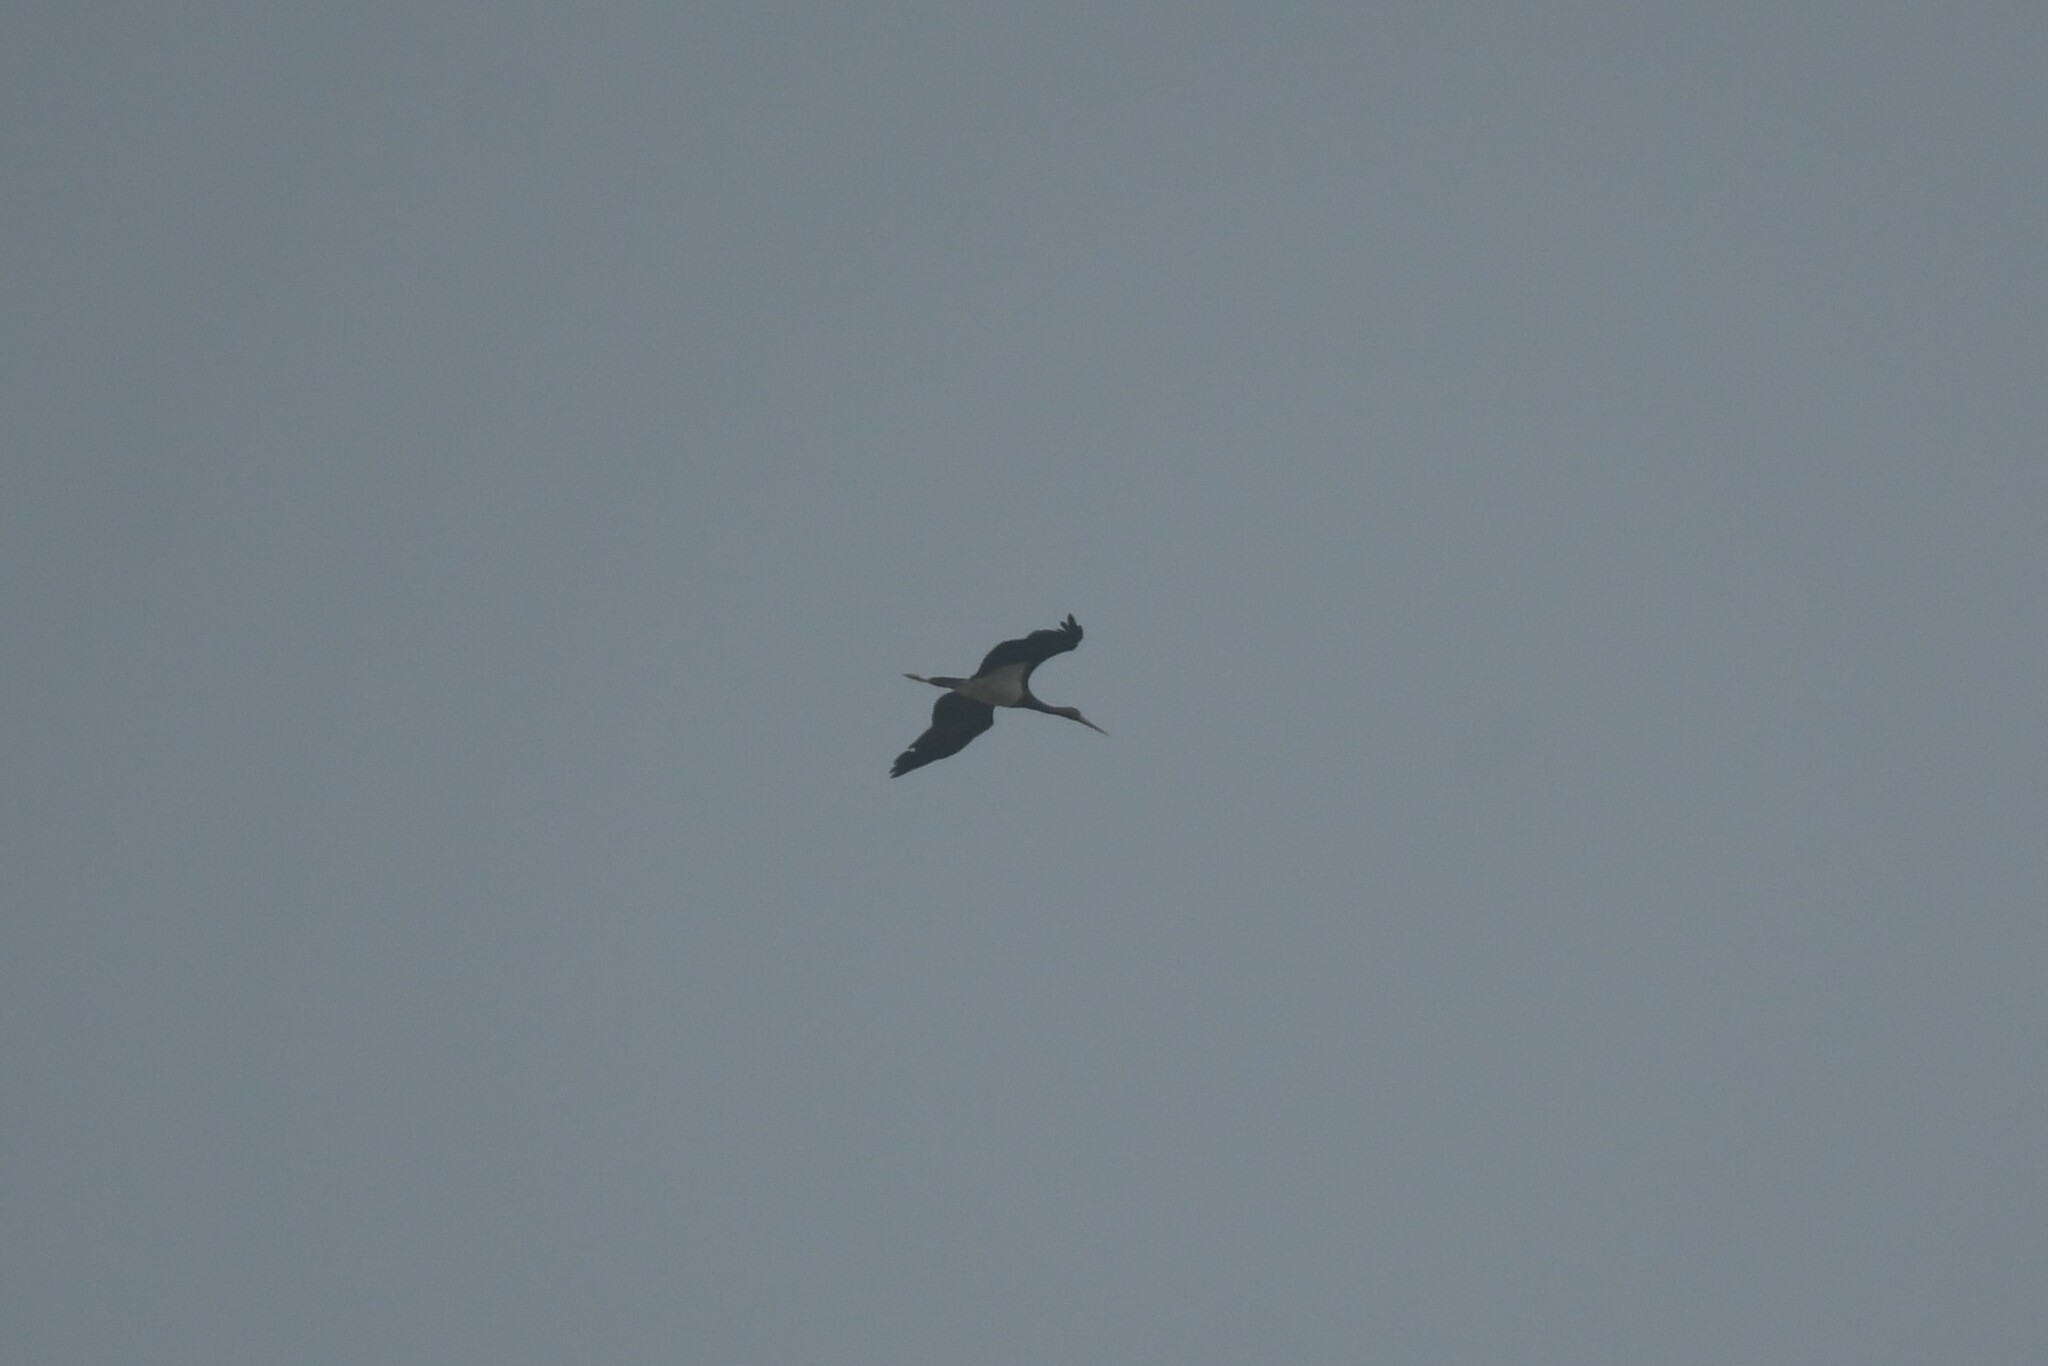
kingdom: Animalia
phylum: Chordata
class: Aves
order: Ciconiiformes
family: Ciconiidae
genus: Ciconia
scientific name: Ciconia nigra
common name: Black stork
